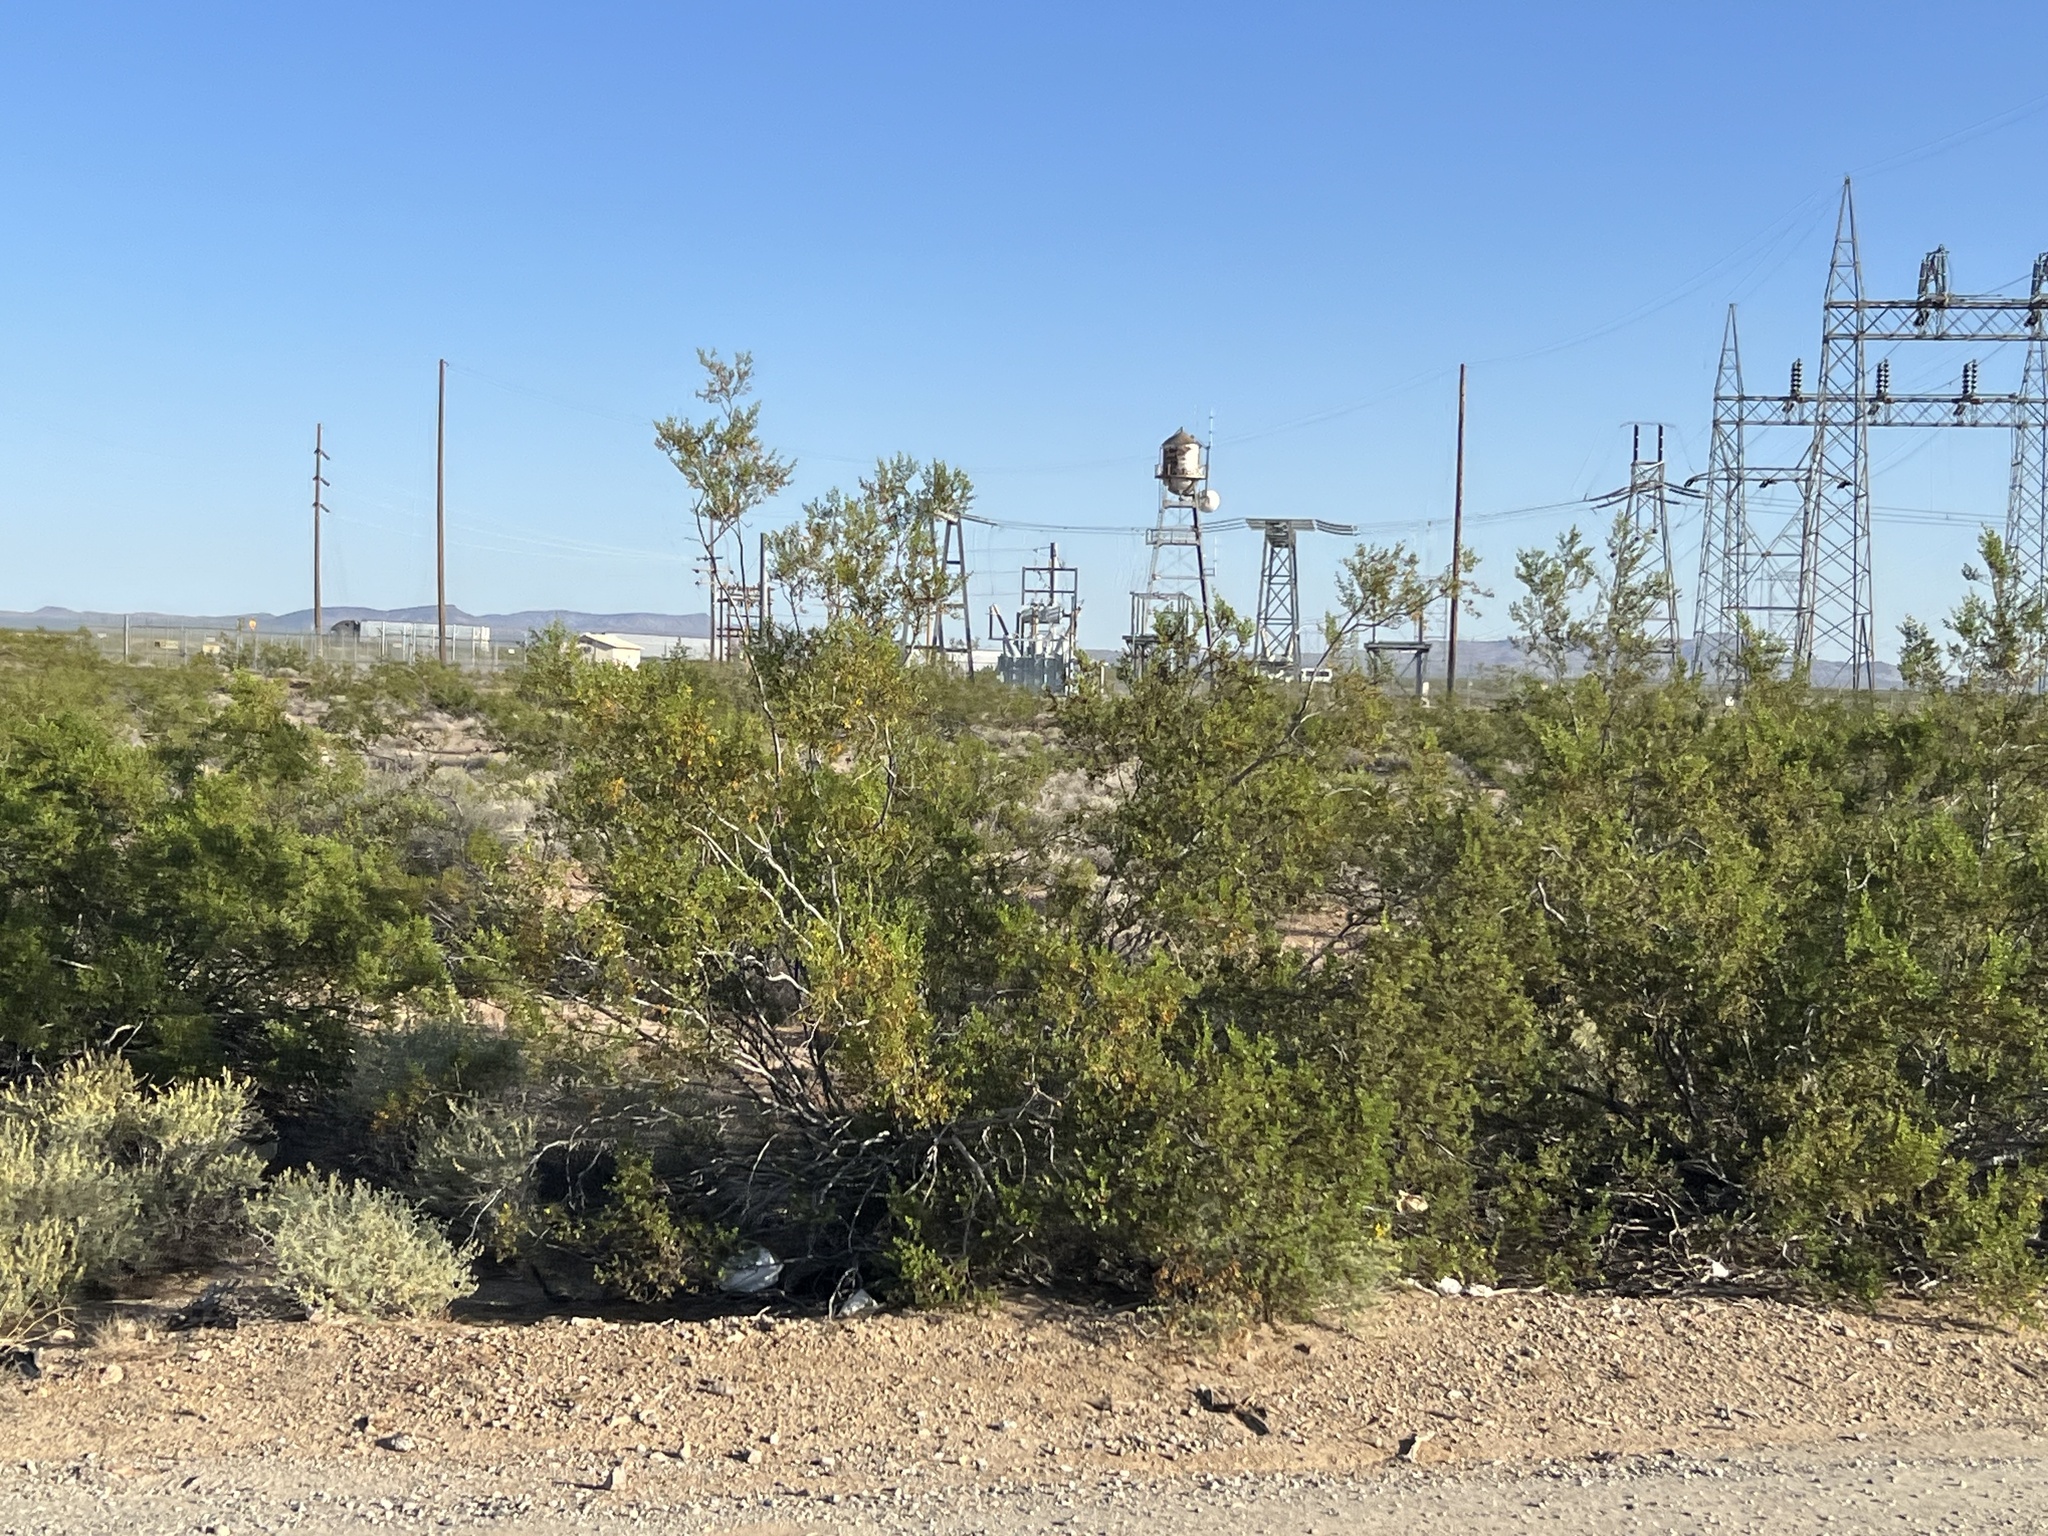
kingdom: Plantae
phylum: Tracheophyta
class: Magnoliopsida
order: Zygophyllales
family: Zygophyllaceae
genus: Larrea
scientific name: Larrea tridentata
